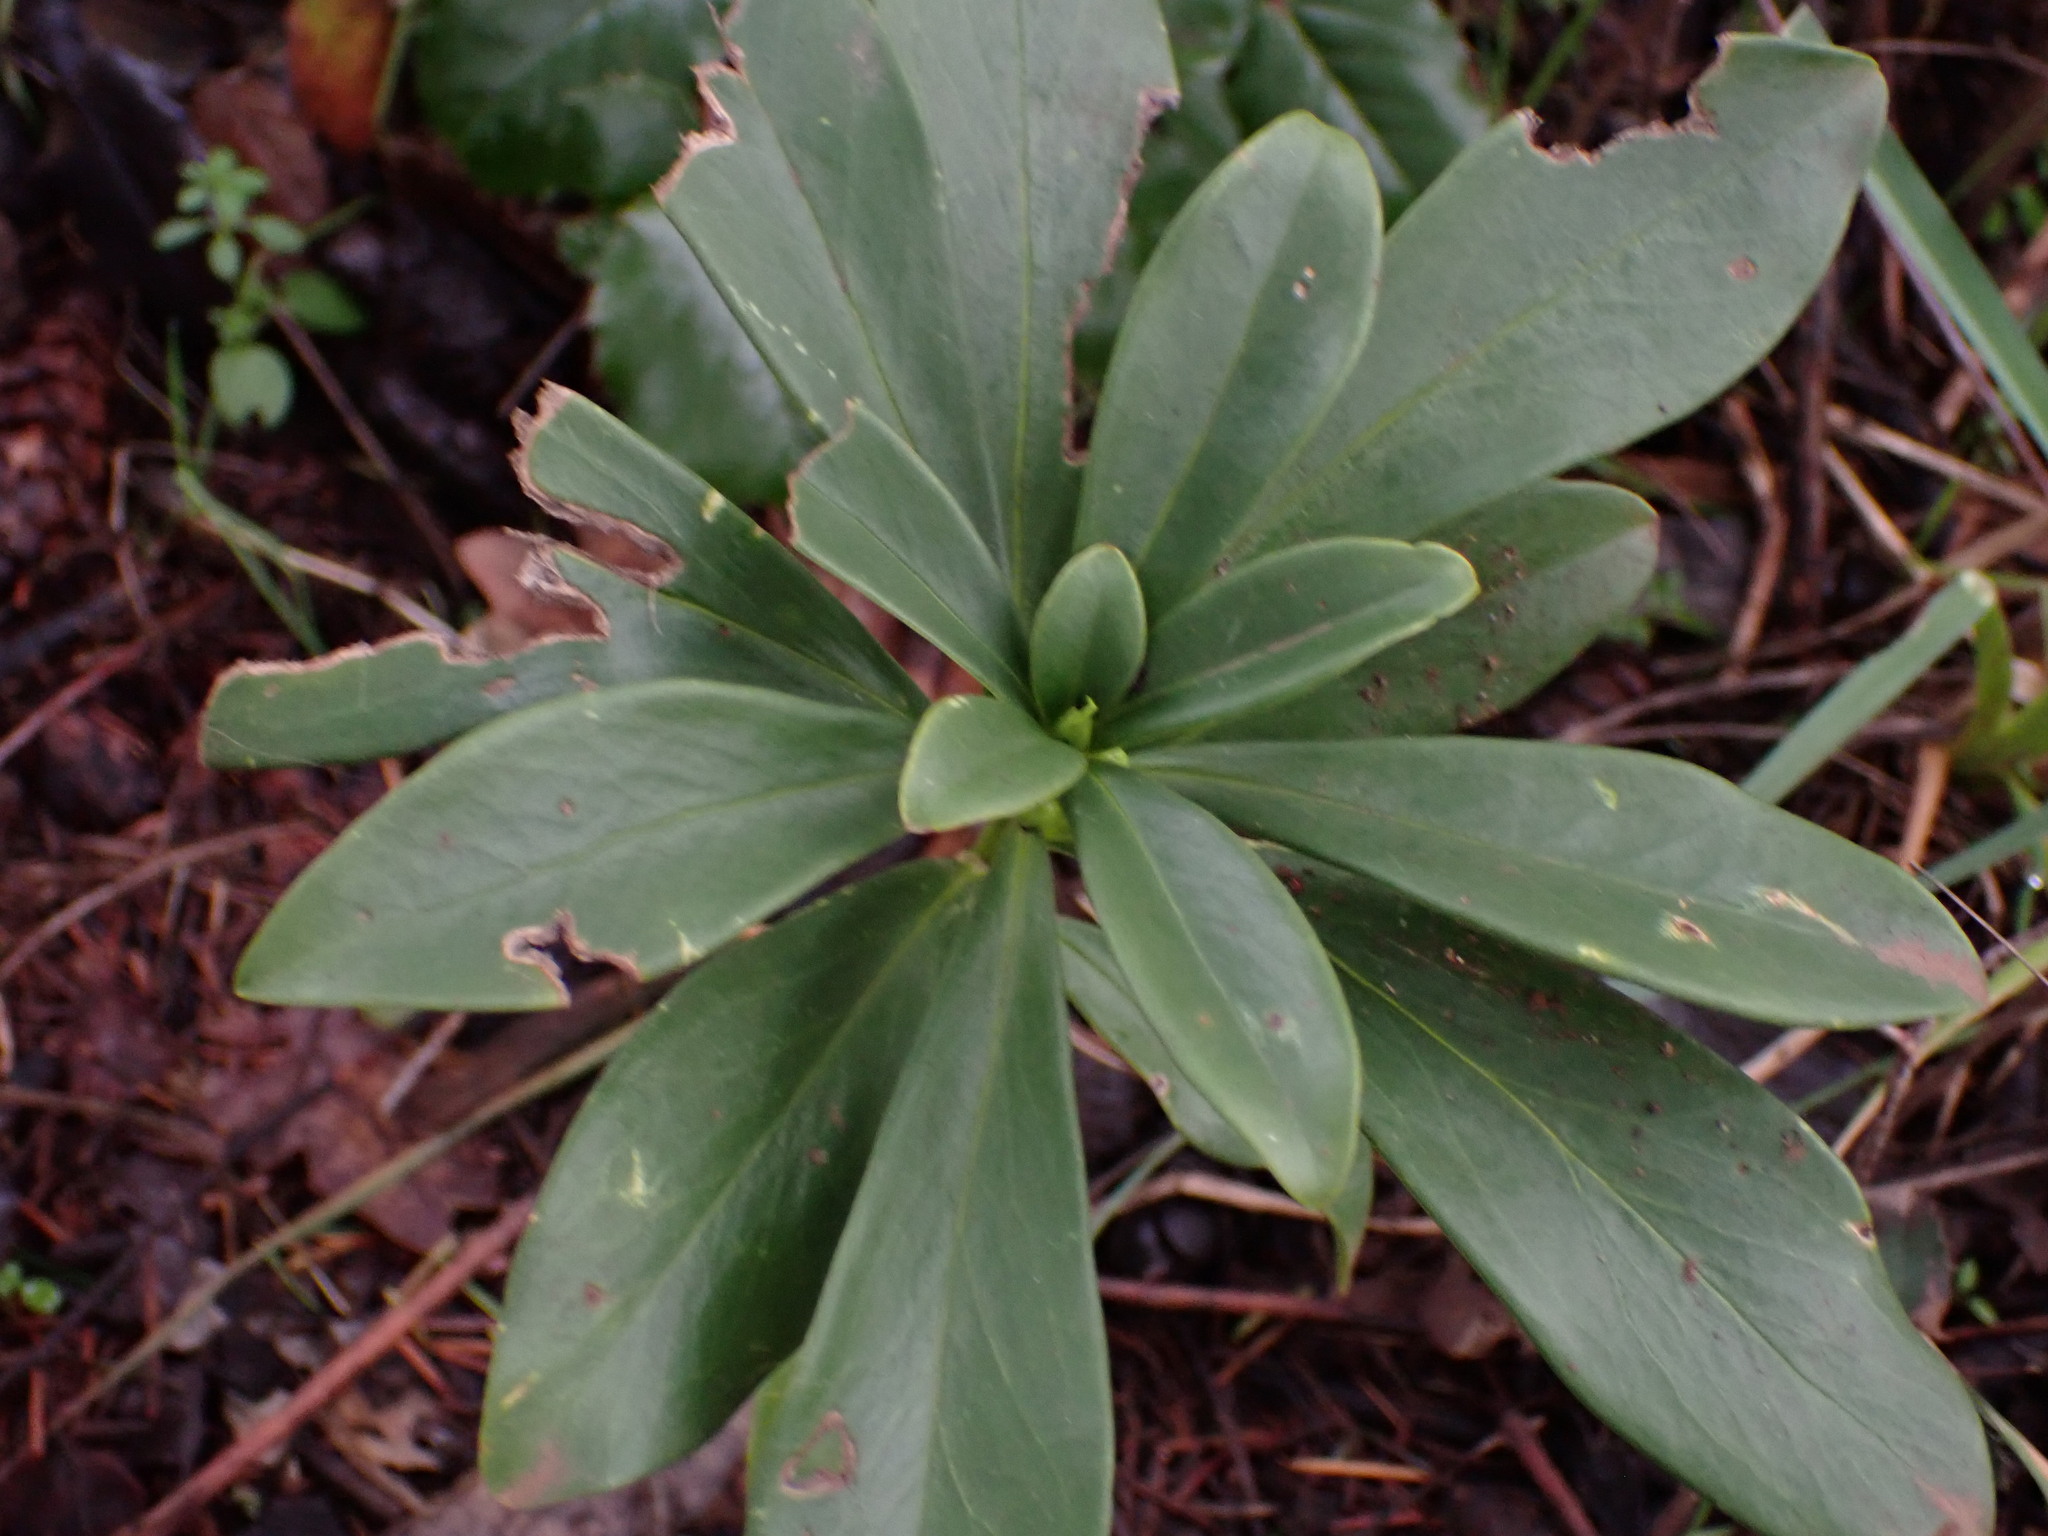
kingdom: Plantae
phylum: Tracheophyta
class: Magnoliopsida
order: Malvales
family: Thymelaeaceae
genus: Daphne
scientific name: Daphne laureola
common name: Spurge-laurel
